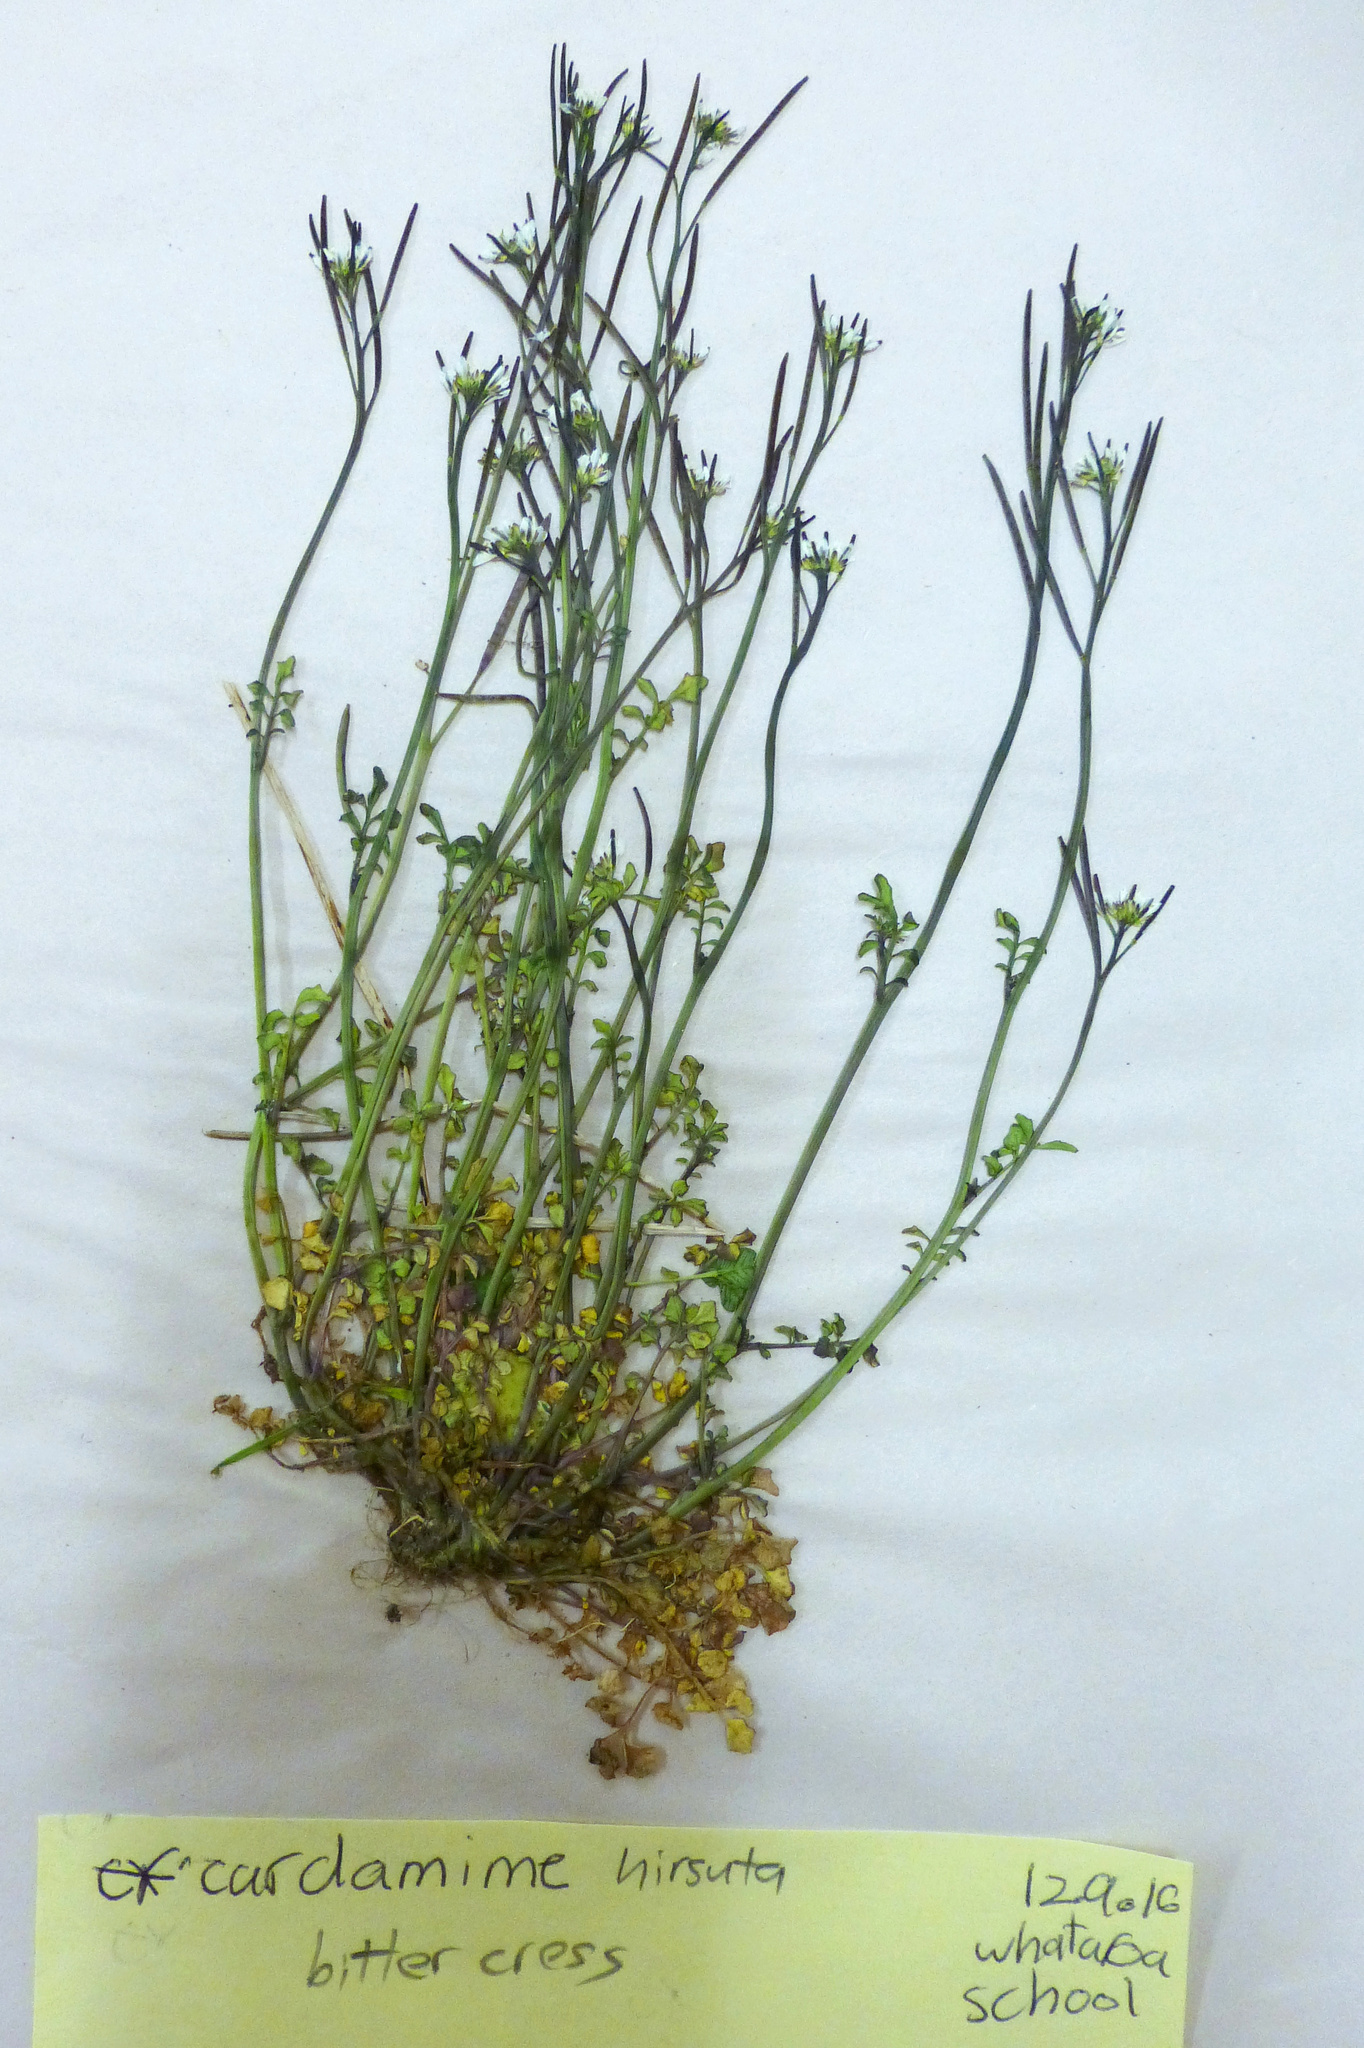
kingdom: Plantae
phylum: Tracheophyta
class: Magnoliopsida
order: Brassicales
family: Brassicaceae
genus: Cardamine
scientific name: Cardamine hirsuta
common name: Hairy bittercress
